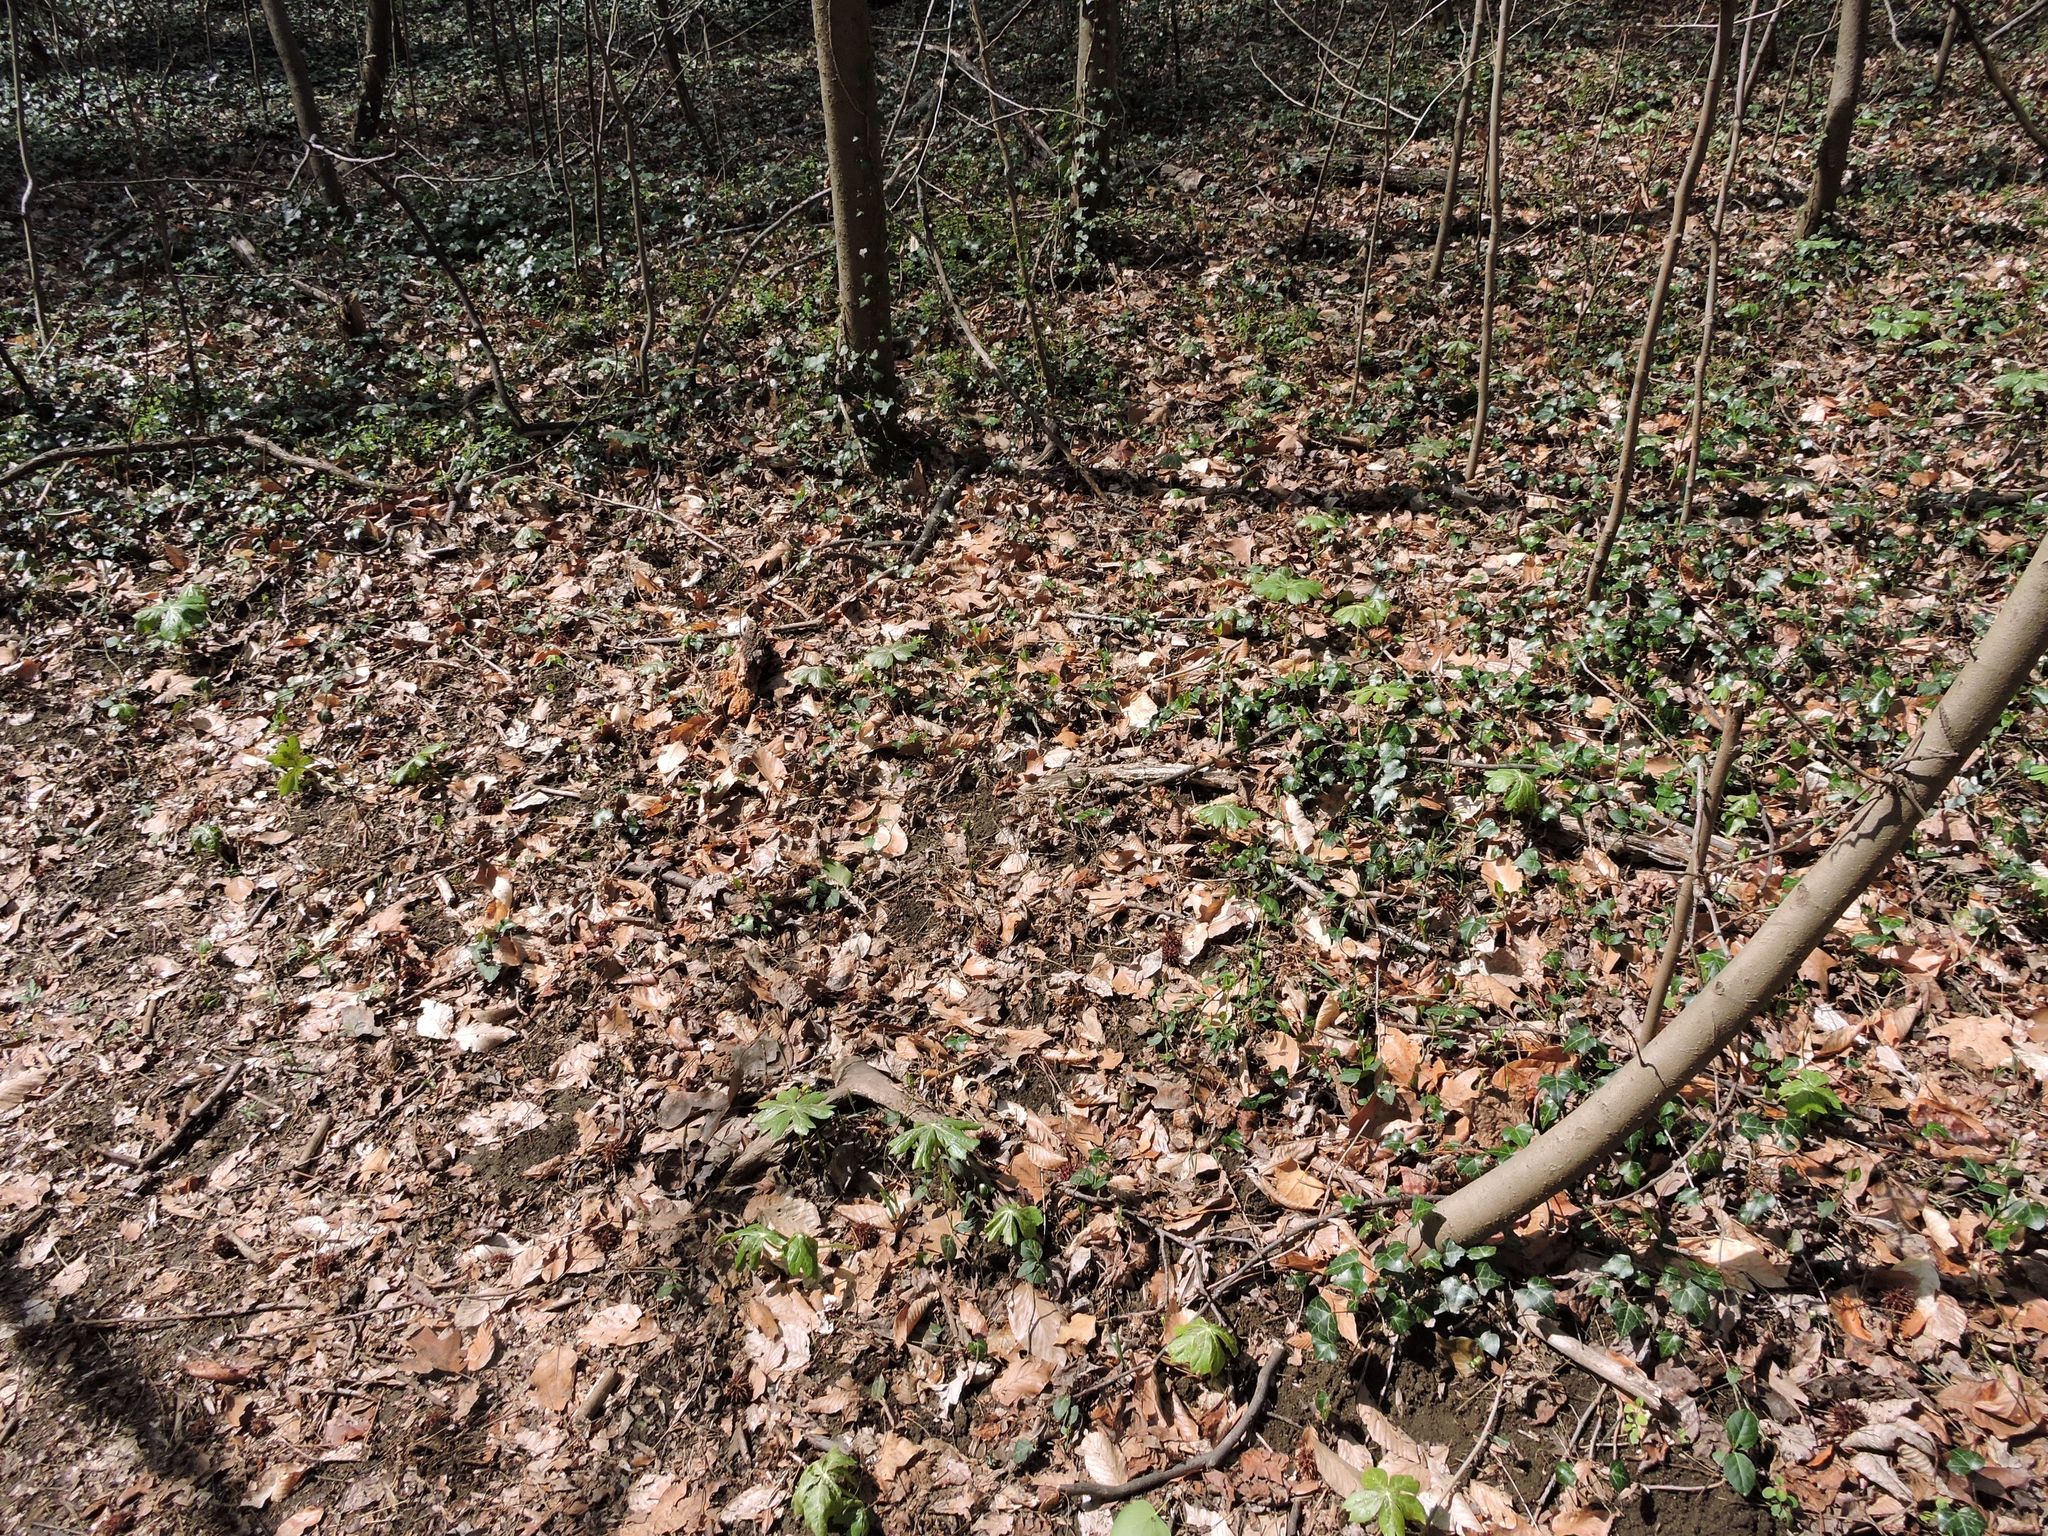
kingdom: Plantae
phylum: Tracheophyta
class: Magnoliopsida
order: Ranunculales
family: Berberidaceae
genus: Podophyllum
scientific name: Podophyllum peltatum
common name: Wild mandrake
